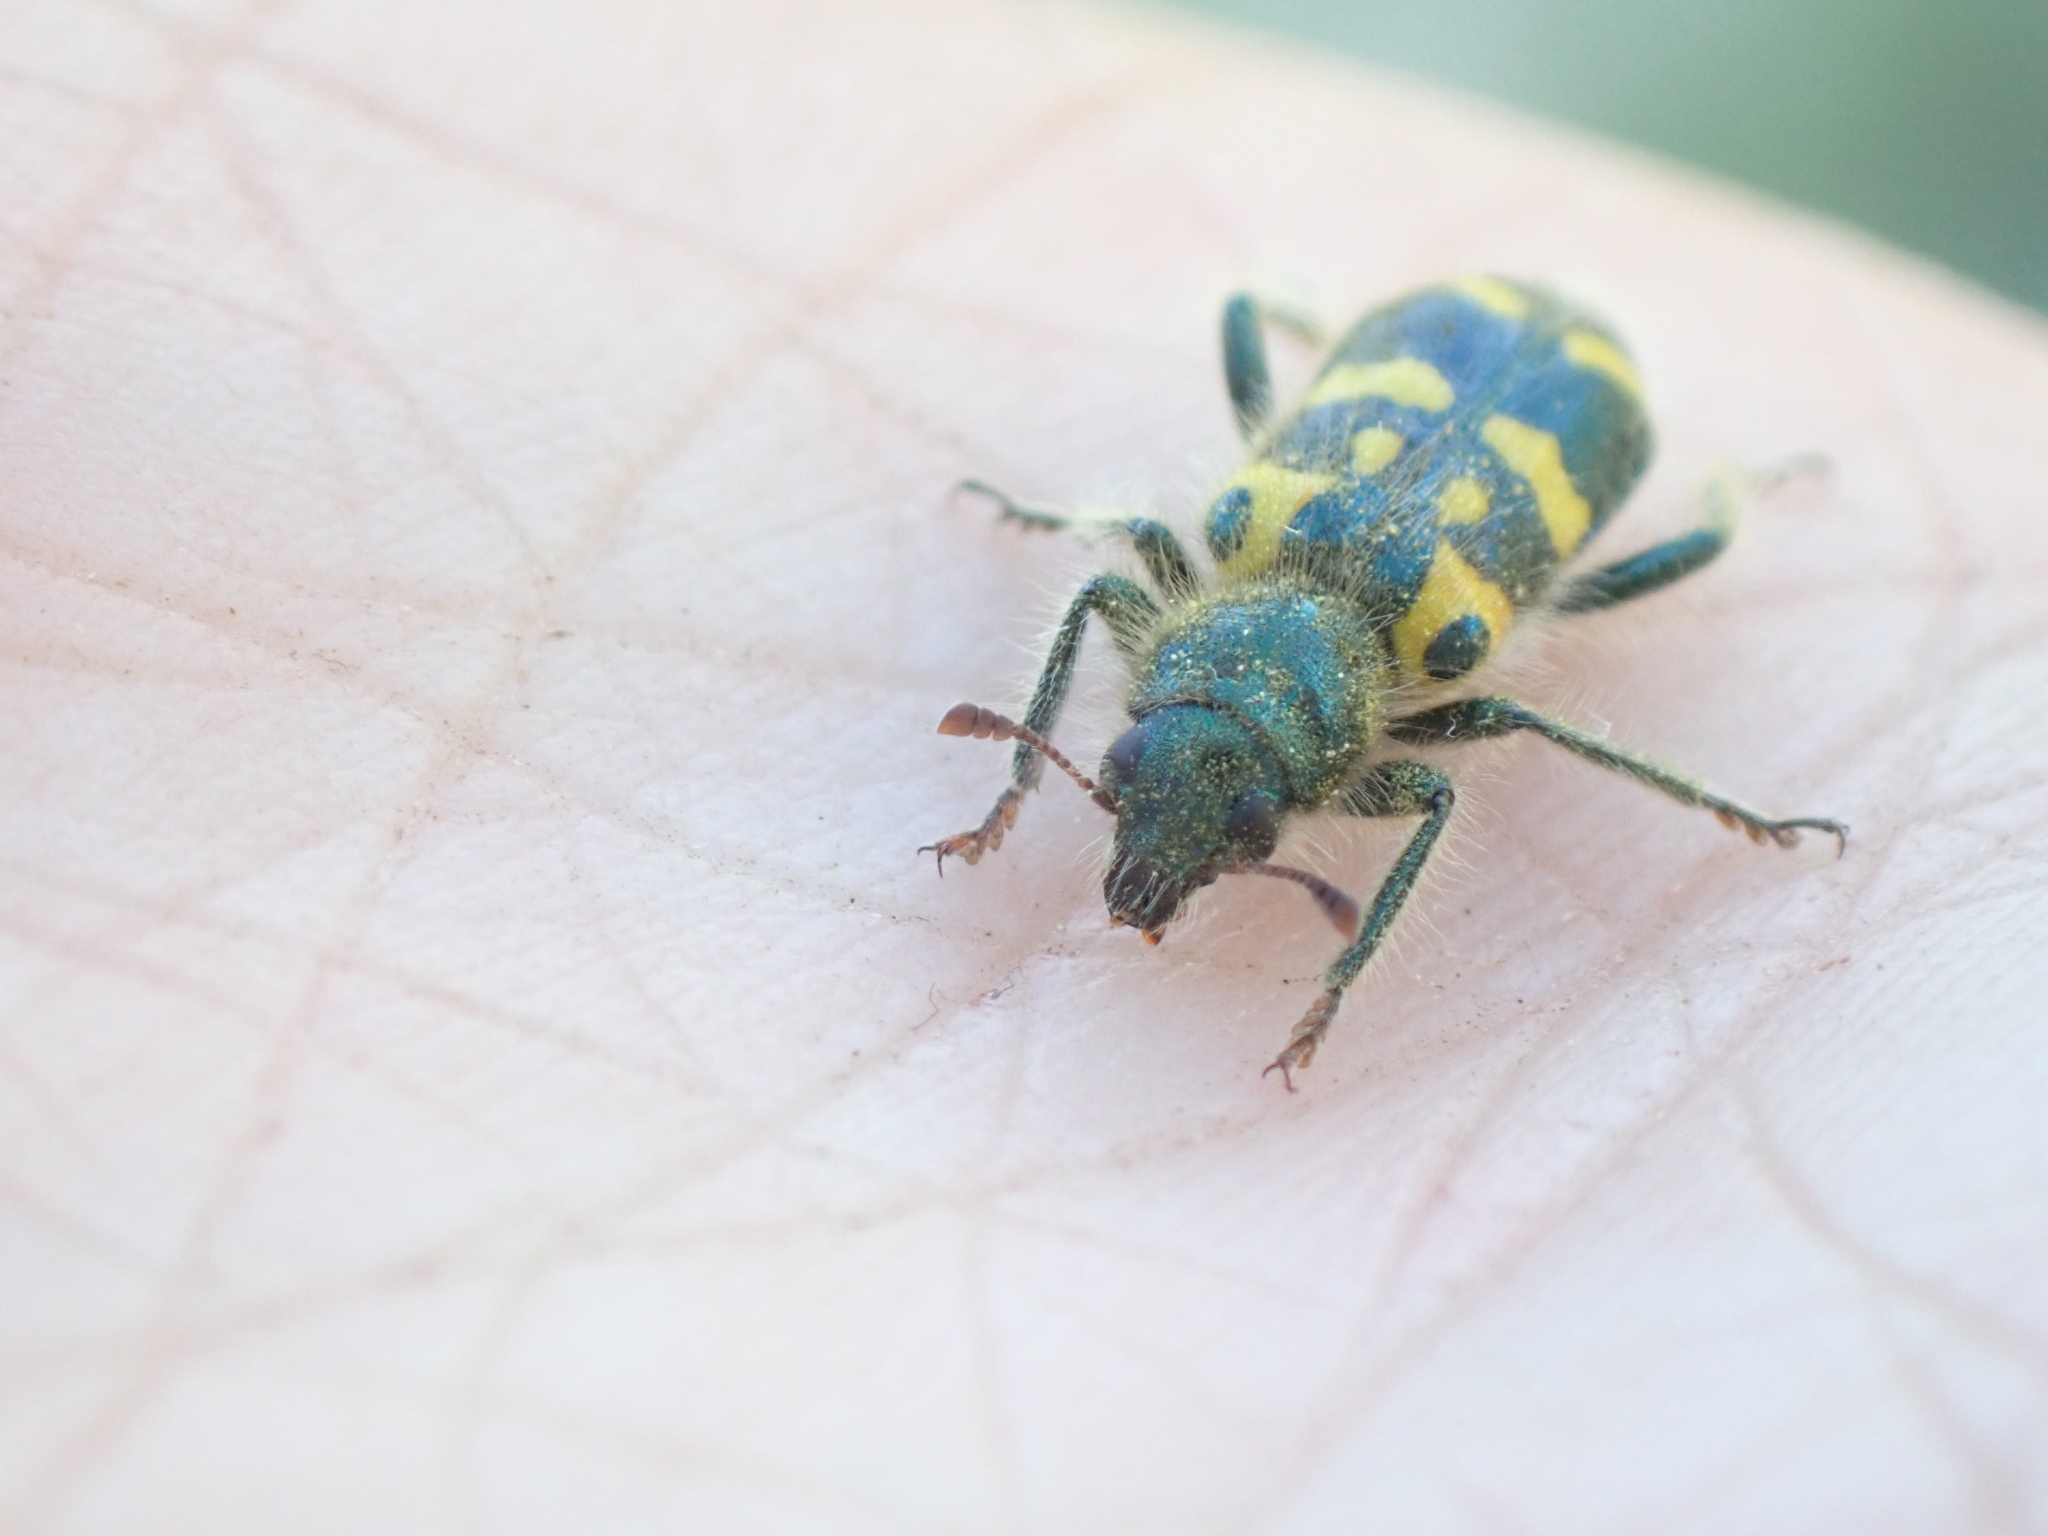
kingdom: Animalia
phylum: Arthropoda
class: Insecta
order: Coleoptera
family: Cleridae
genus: Trichodes
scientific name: Trichodes ornatus
